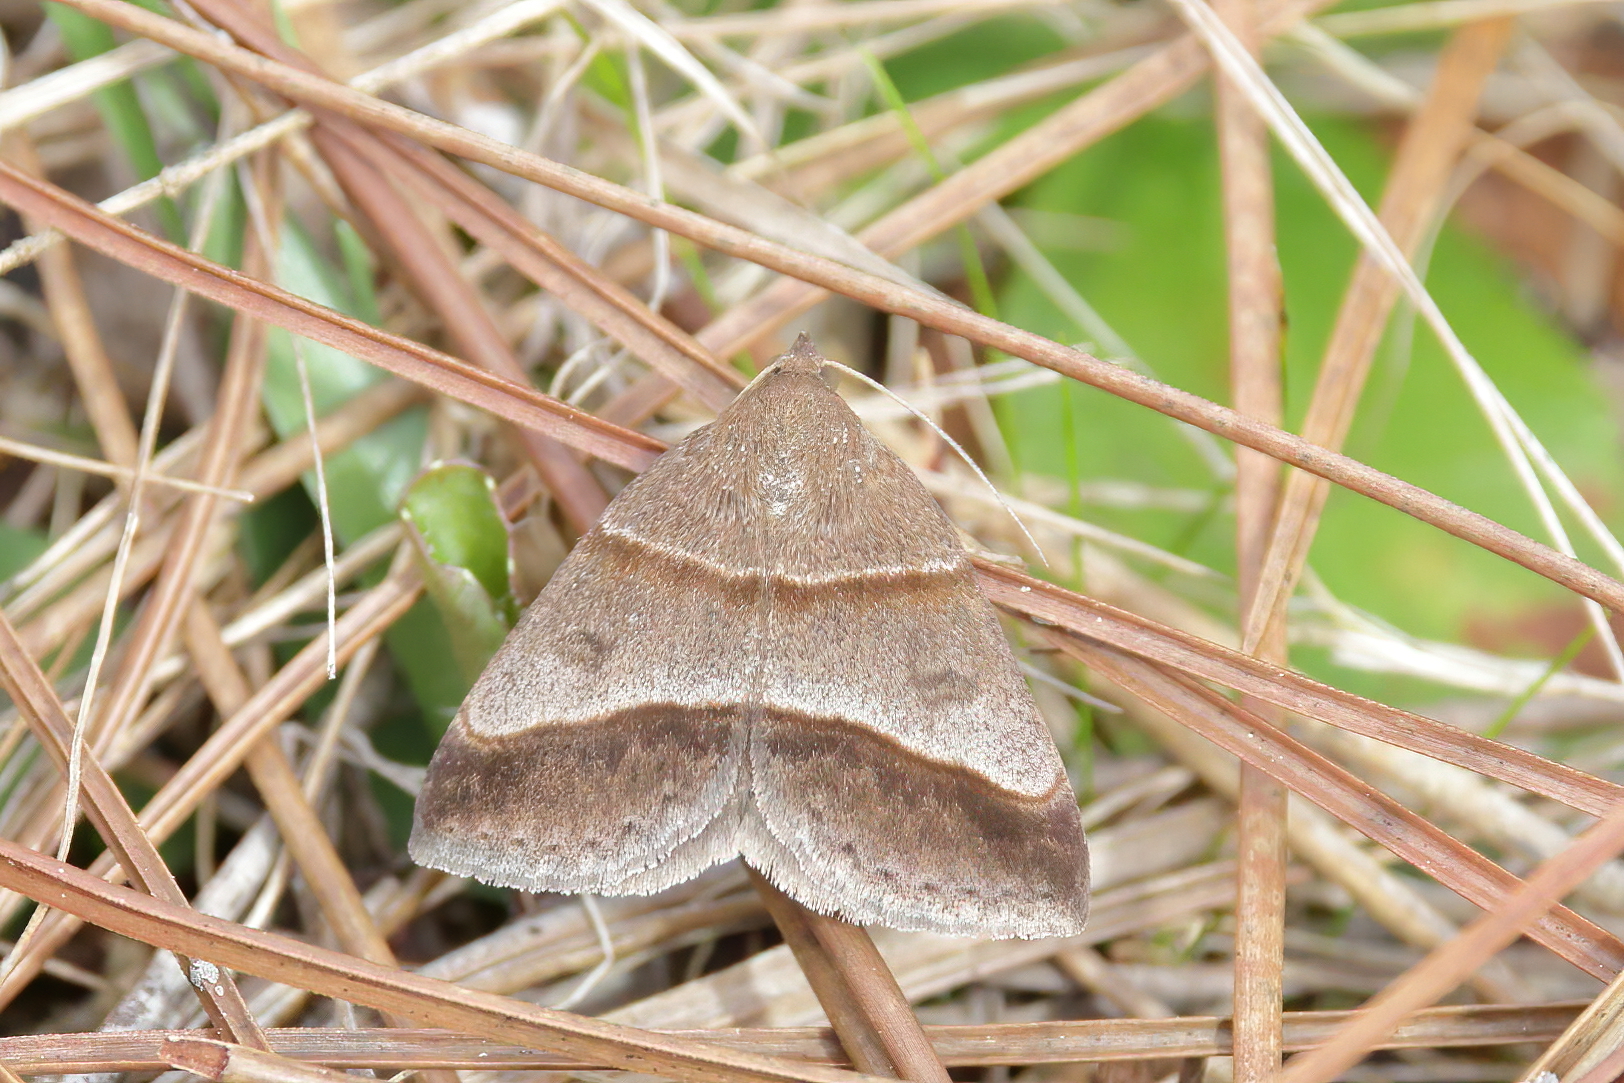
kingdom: Animalia
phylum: Arthropoda
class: Insecta
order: Lepidoptera
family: Erebidae
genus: Argyrostrotis
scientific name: Argyrostrotis sylvarum
